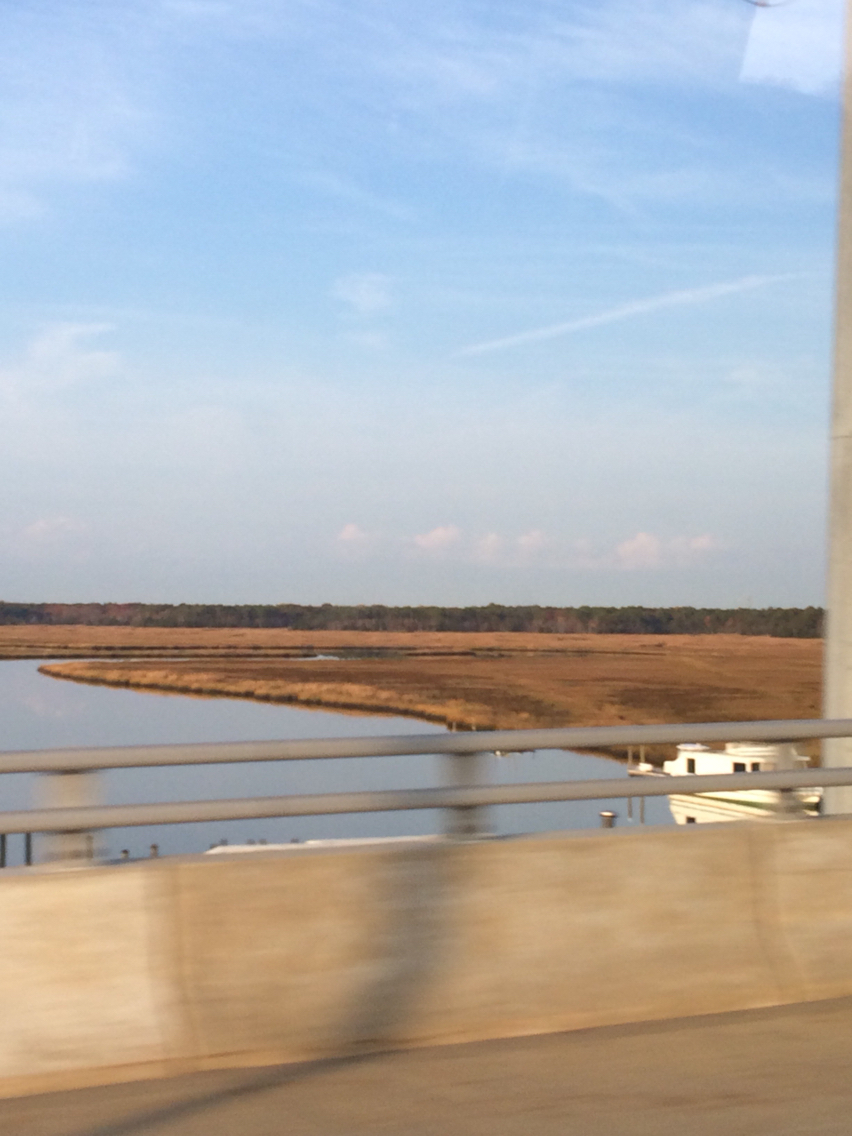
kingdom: Plantae
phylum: Tracheophyta
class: Liliopsida
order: Poales
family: Poaceae
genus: Sporobolus
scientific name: Sporobolus alterniflorus
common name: Atlantic cordgrass
